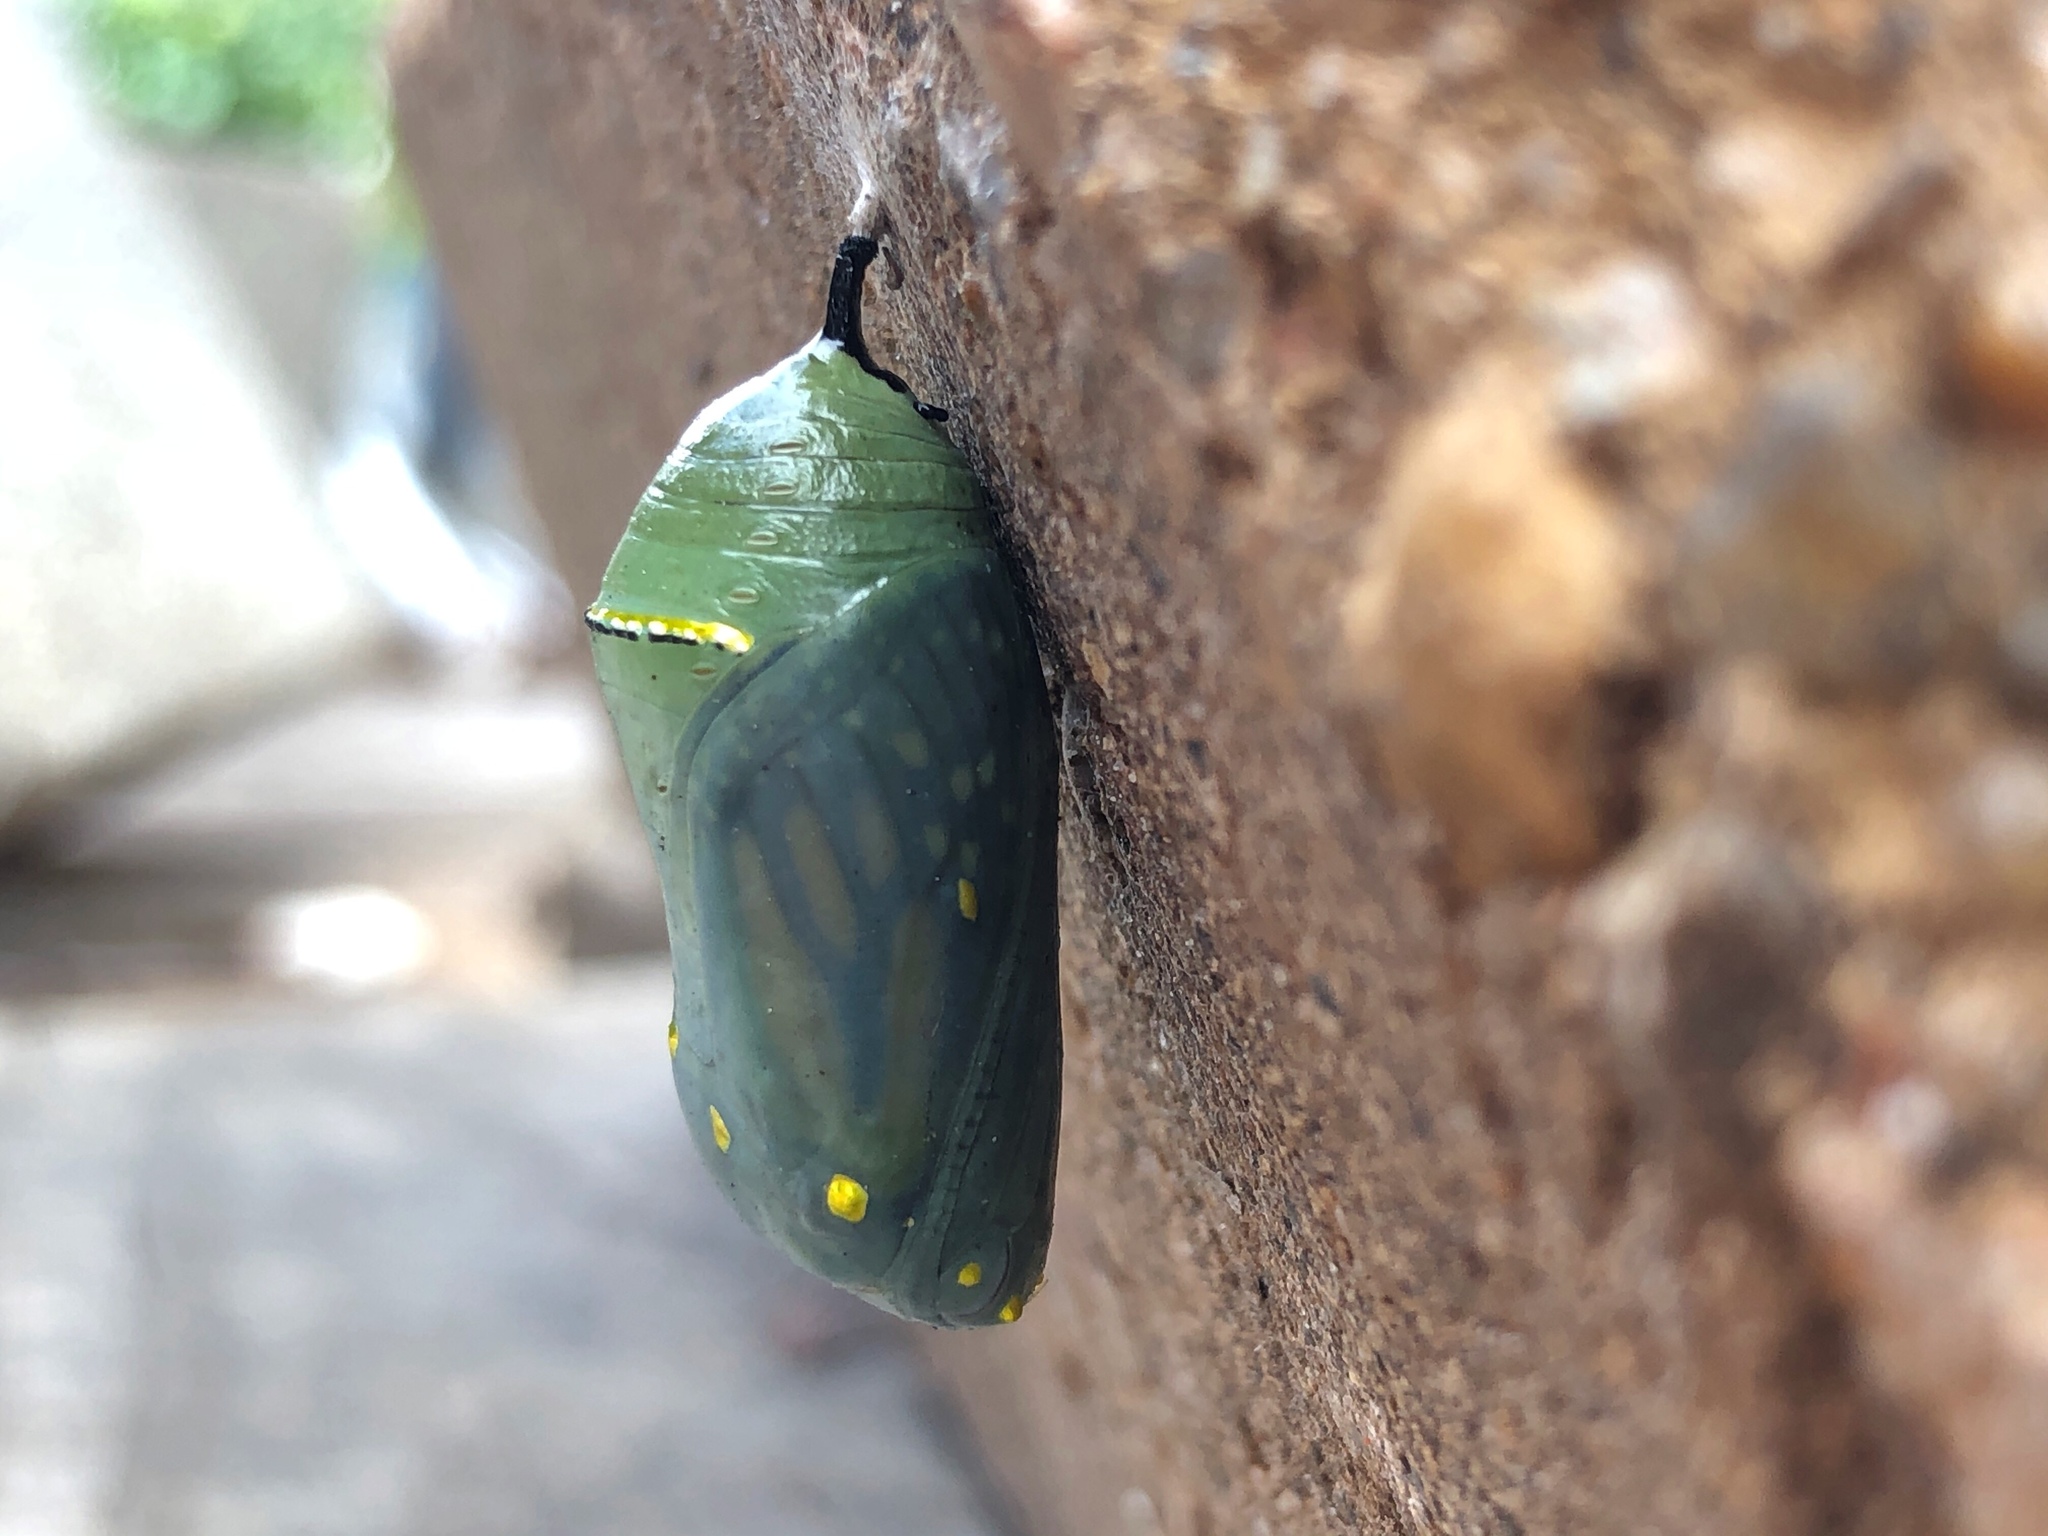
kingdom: Animalia
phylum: Arthropoda
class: Insecta
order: Lepidoptera
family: Nymphalidae
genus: Danaus
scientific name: Danaus plexippus
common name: Monarch
